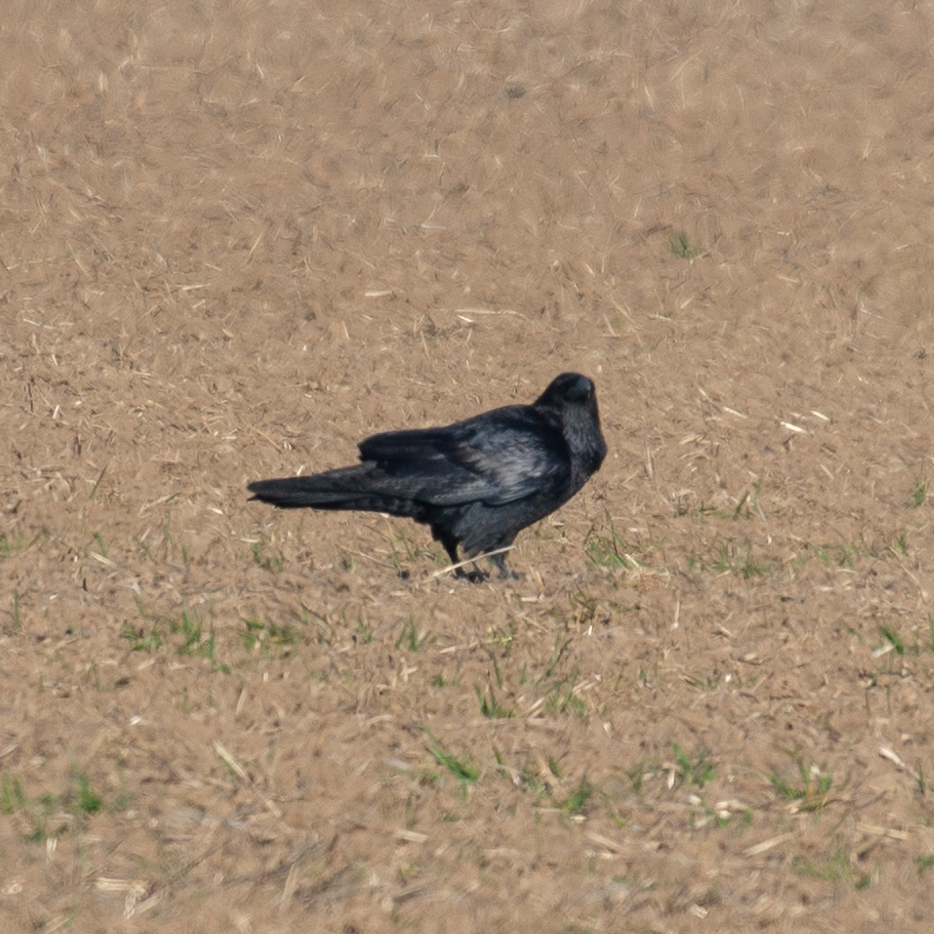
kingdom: Animalia
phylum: Chordata
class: Aves
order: Passeriformes
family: Corvidae
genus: Corvus
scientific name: Corvus corax
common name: Common raven
